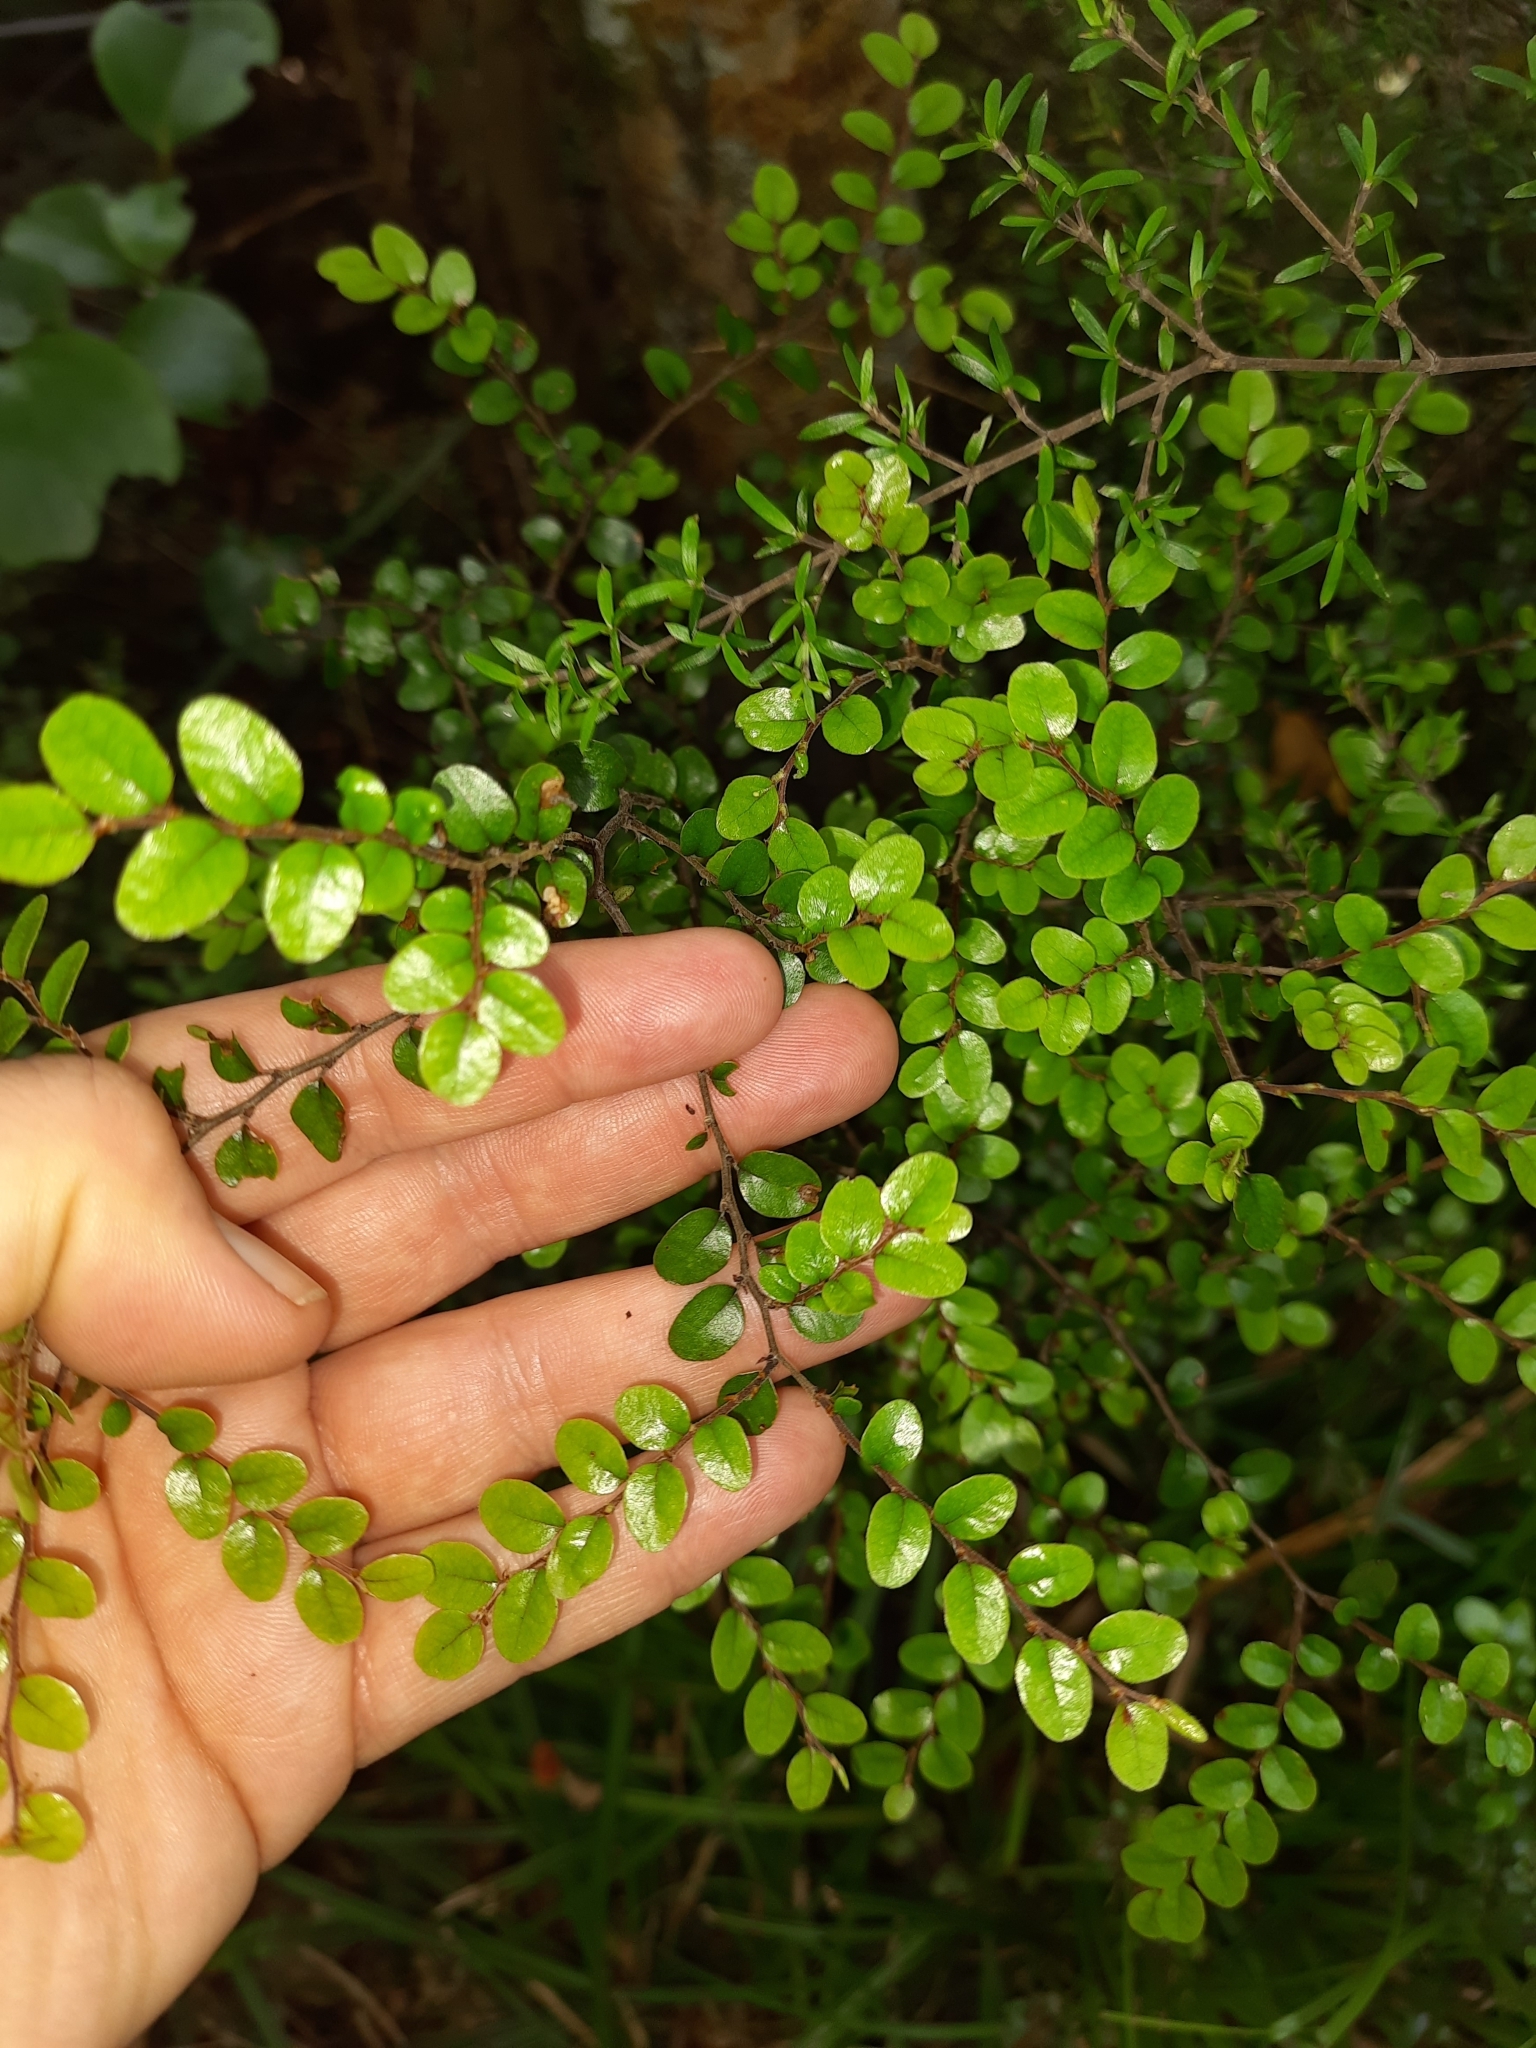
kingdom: Plantae
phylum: Tracheophyta
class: Magnoliopsida
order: Fagales
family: Nothofagaceae
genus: Nothofagus
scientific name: Nothofagus solandri
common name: Black beech
